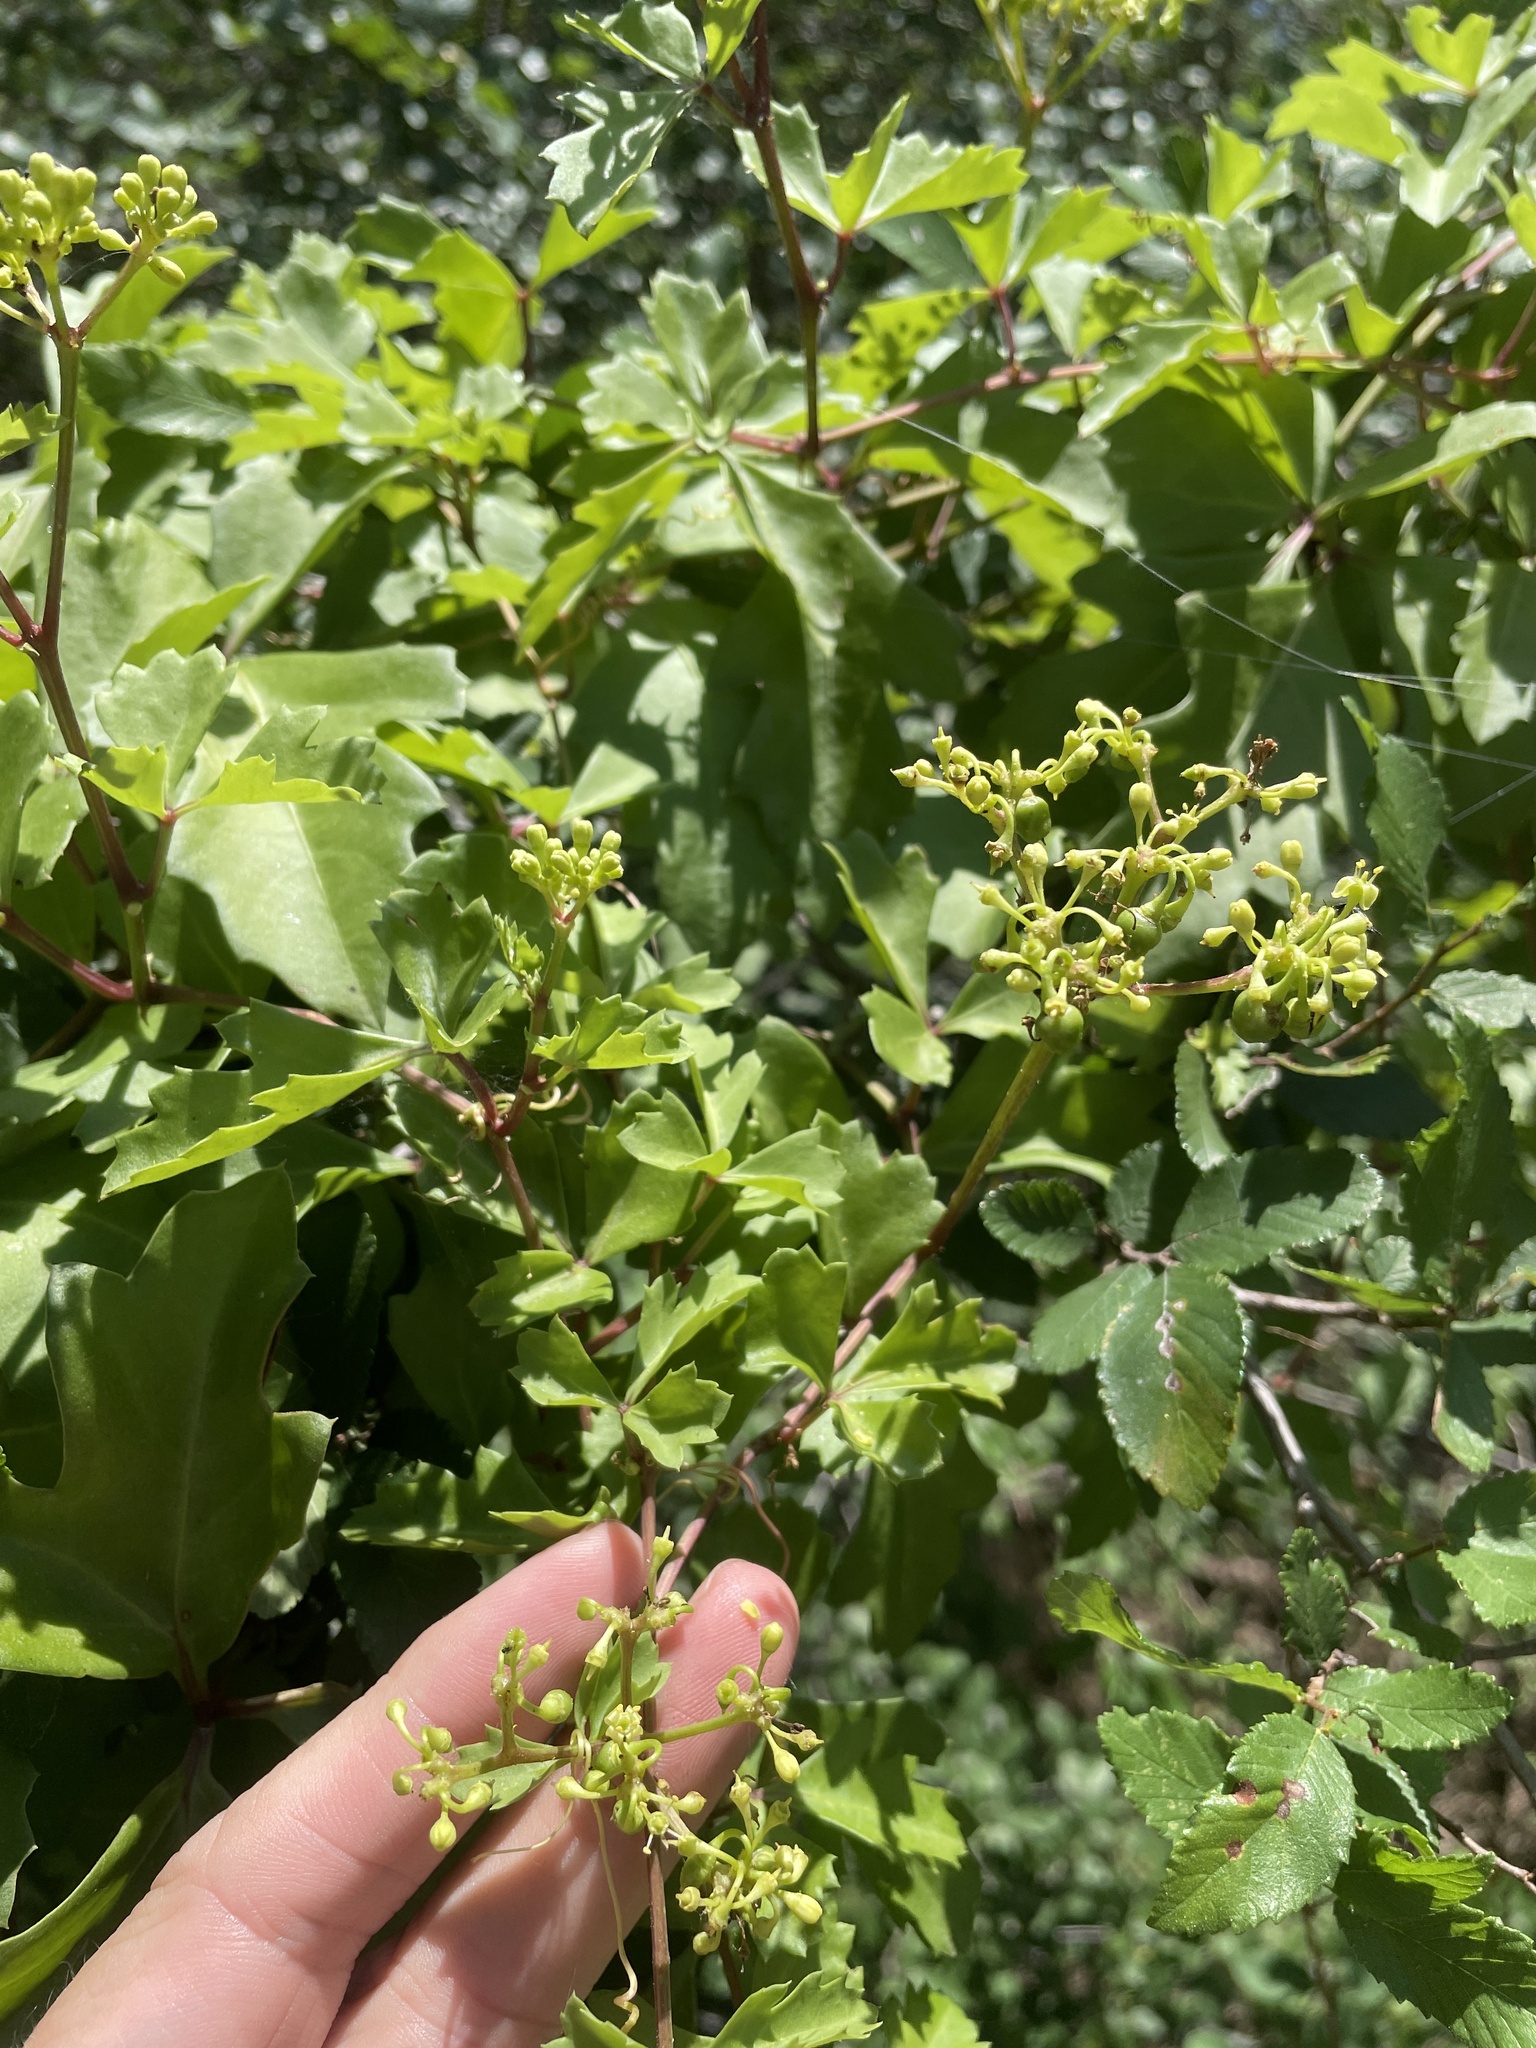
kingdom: Plantae
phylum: Tracheophyta
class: Magnoliopsida
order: Vitales
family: Vitaceae
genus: Cissus
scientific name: Cissus trifoliata
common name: Vine-sorrel
